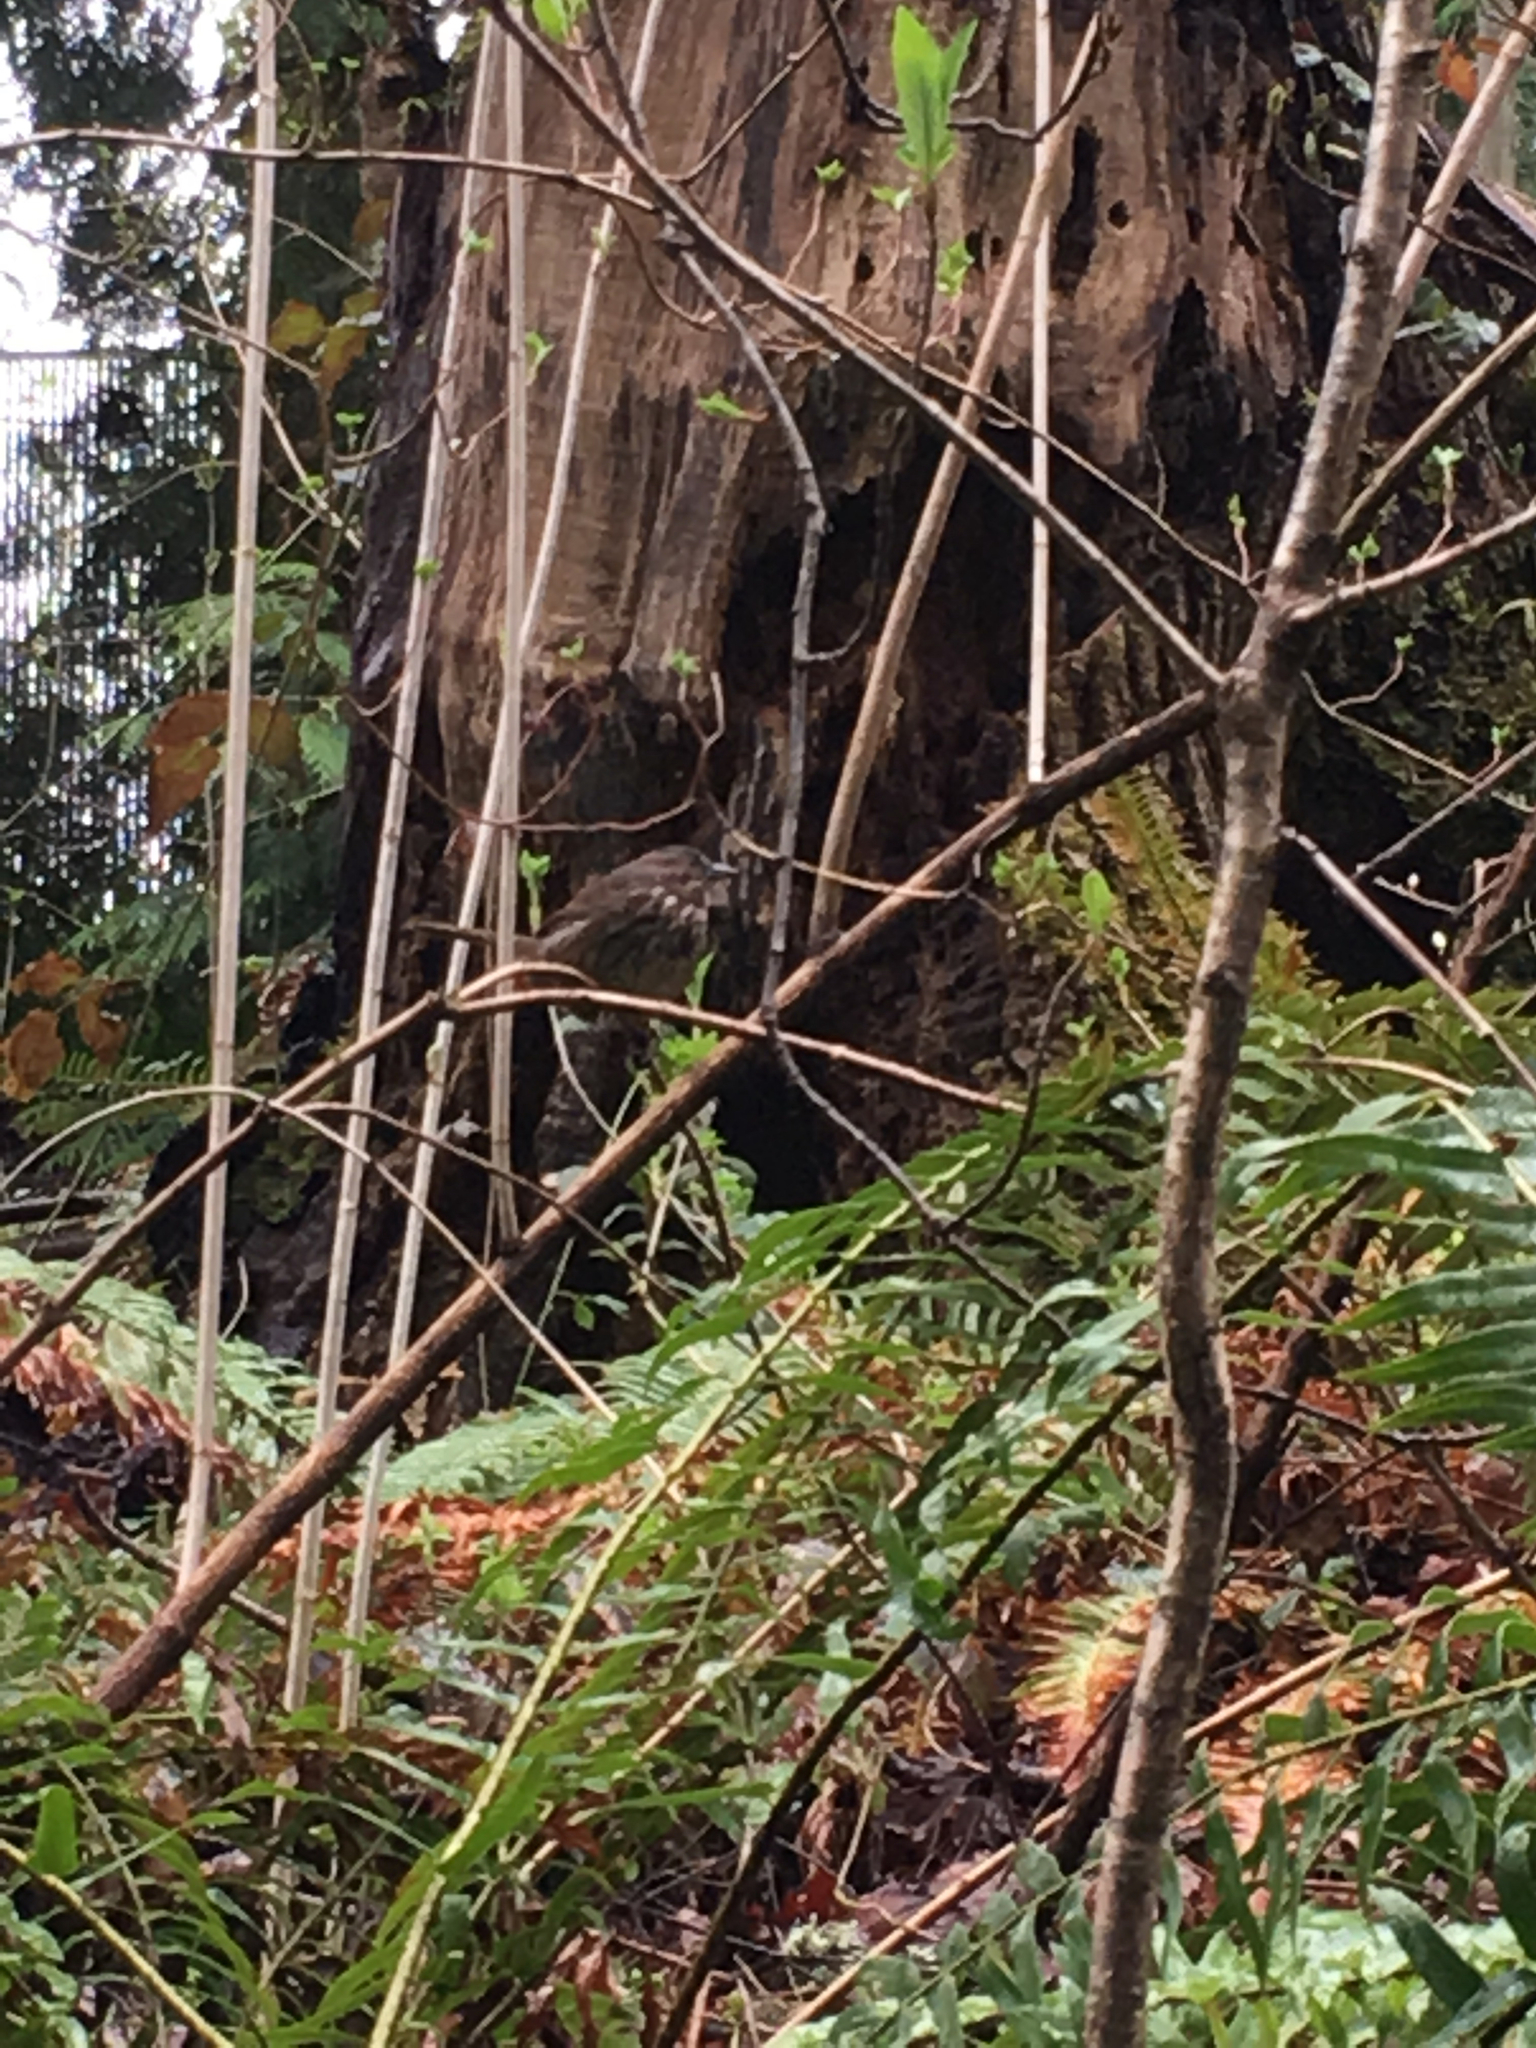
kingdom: Animalia
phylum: Chordata
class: Aves
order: Passeriformes
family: Passerellidae
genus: Melospiza
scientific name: Melospiza melodia
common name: Song sparrow
